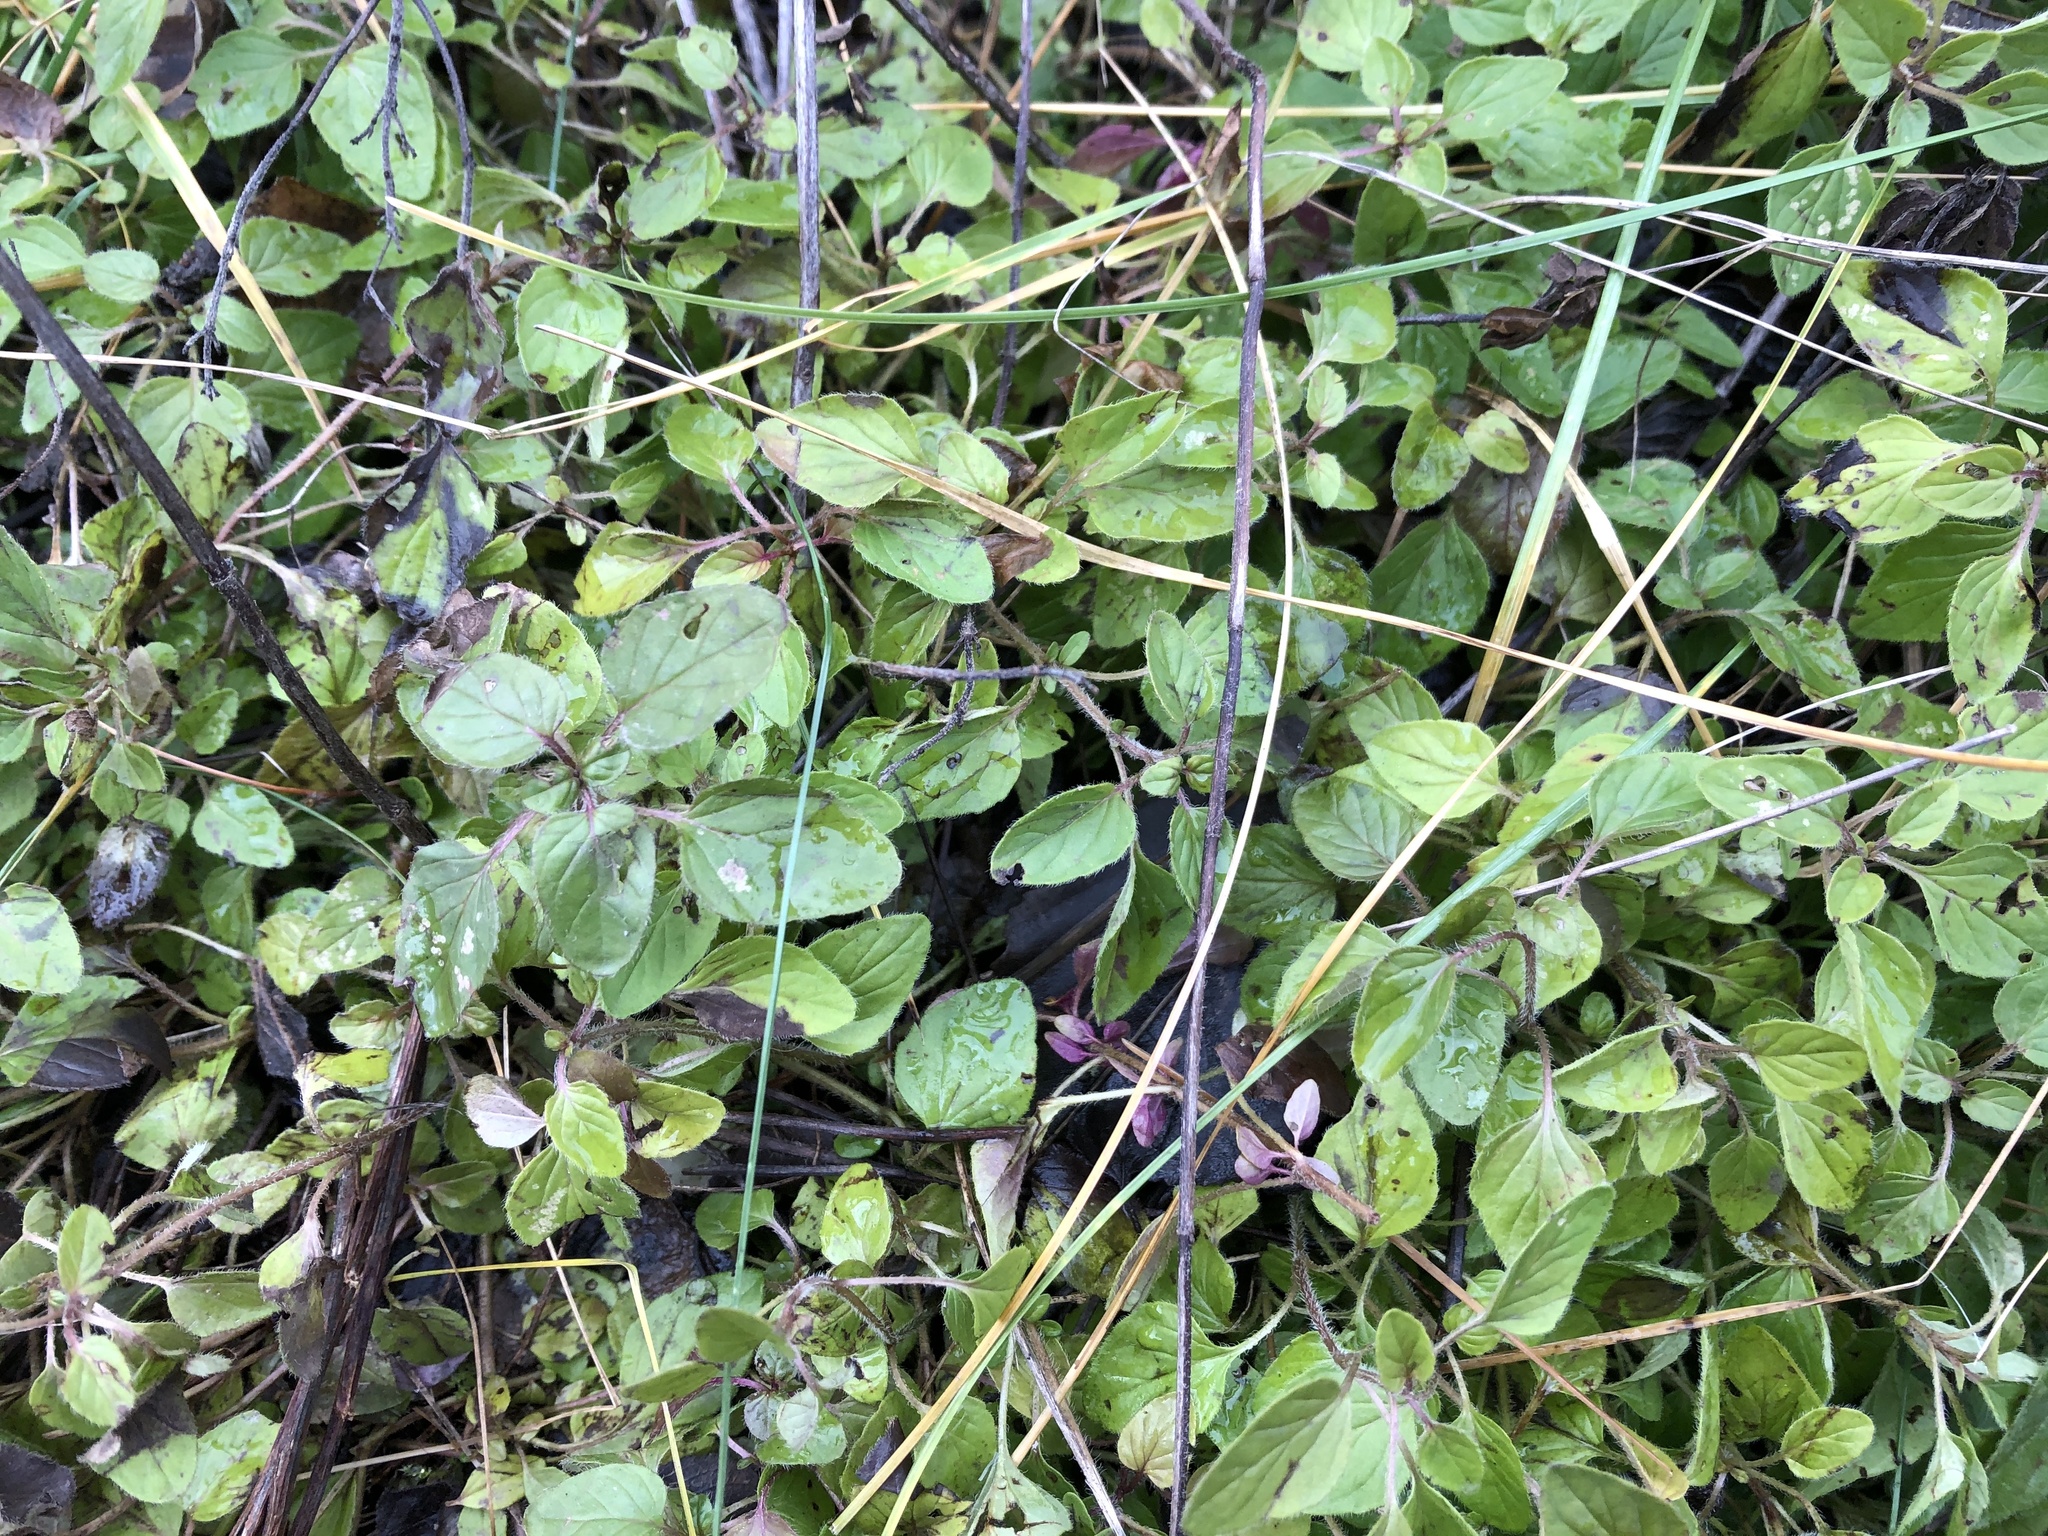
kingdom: Plantae
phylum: Tracheophyta
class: Magnoliopsida
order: Lamiales
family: Lamiaceae
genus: Origanum
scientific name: Origanum vulgare
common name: Wild marjoram
